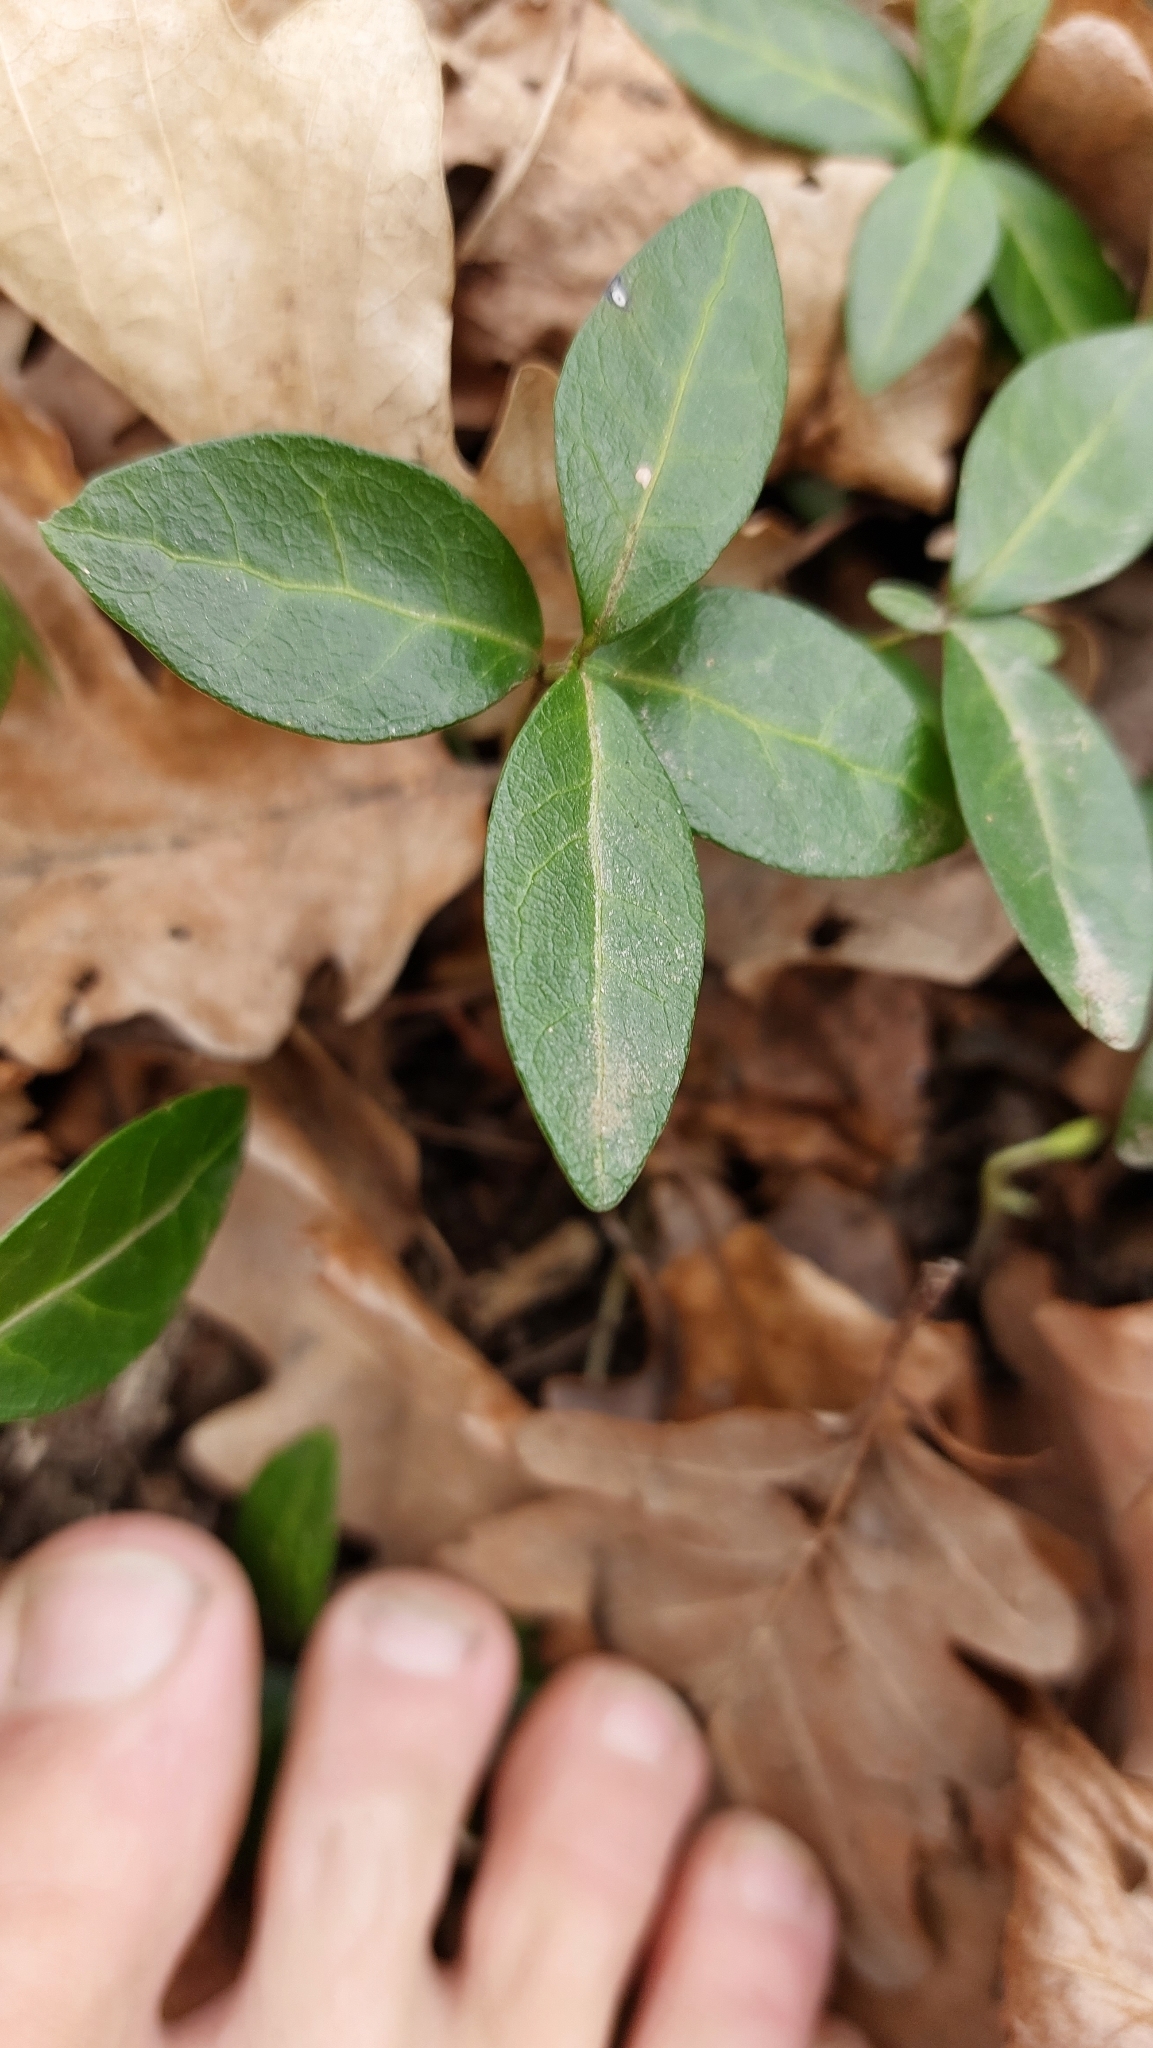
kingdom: Plantae
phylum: Tracheophyta
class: Magnoliopsida
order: Gentianales
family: Apocynaceae
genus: Vinca
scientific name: Vinca minor
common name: Lesser periwinkle
